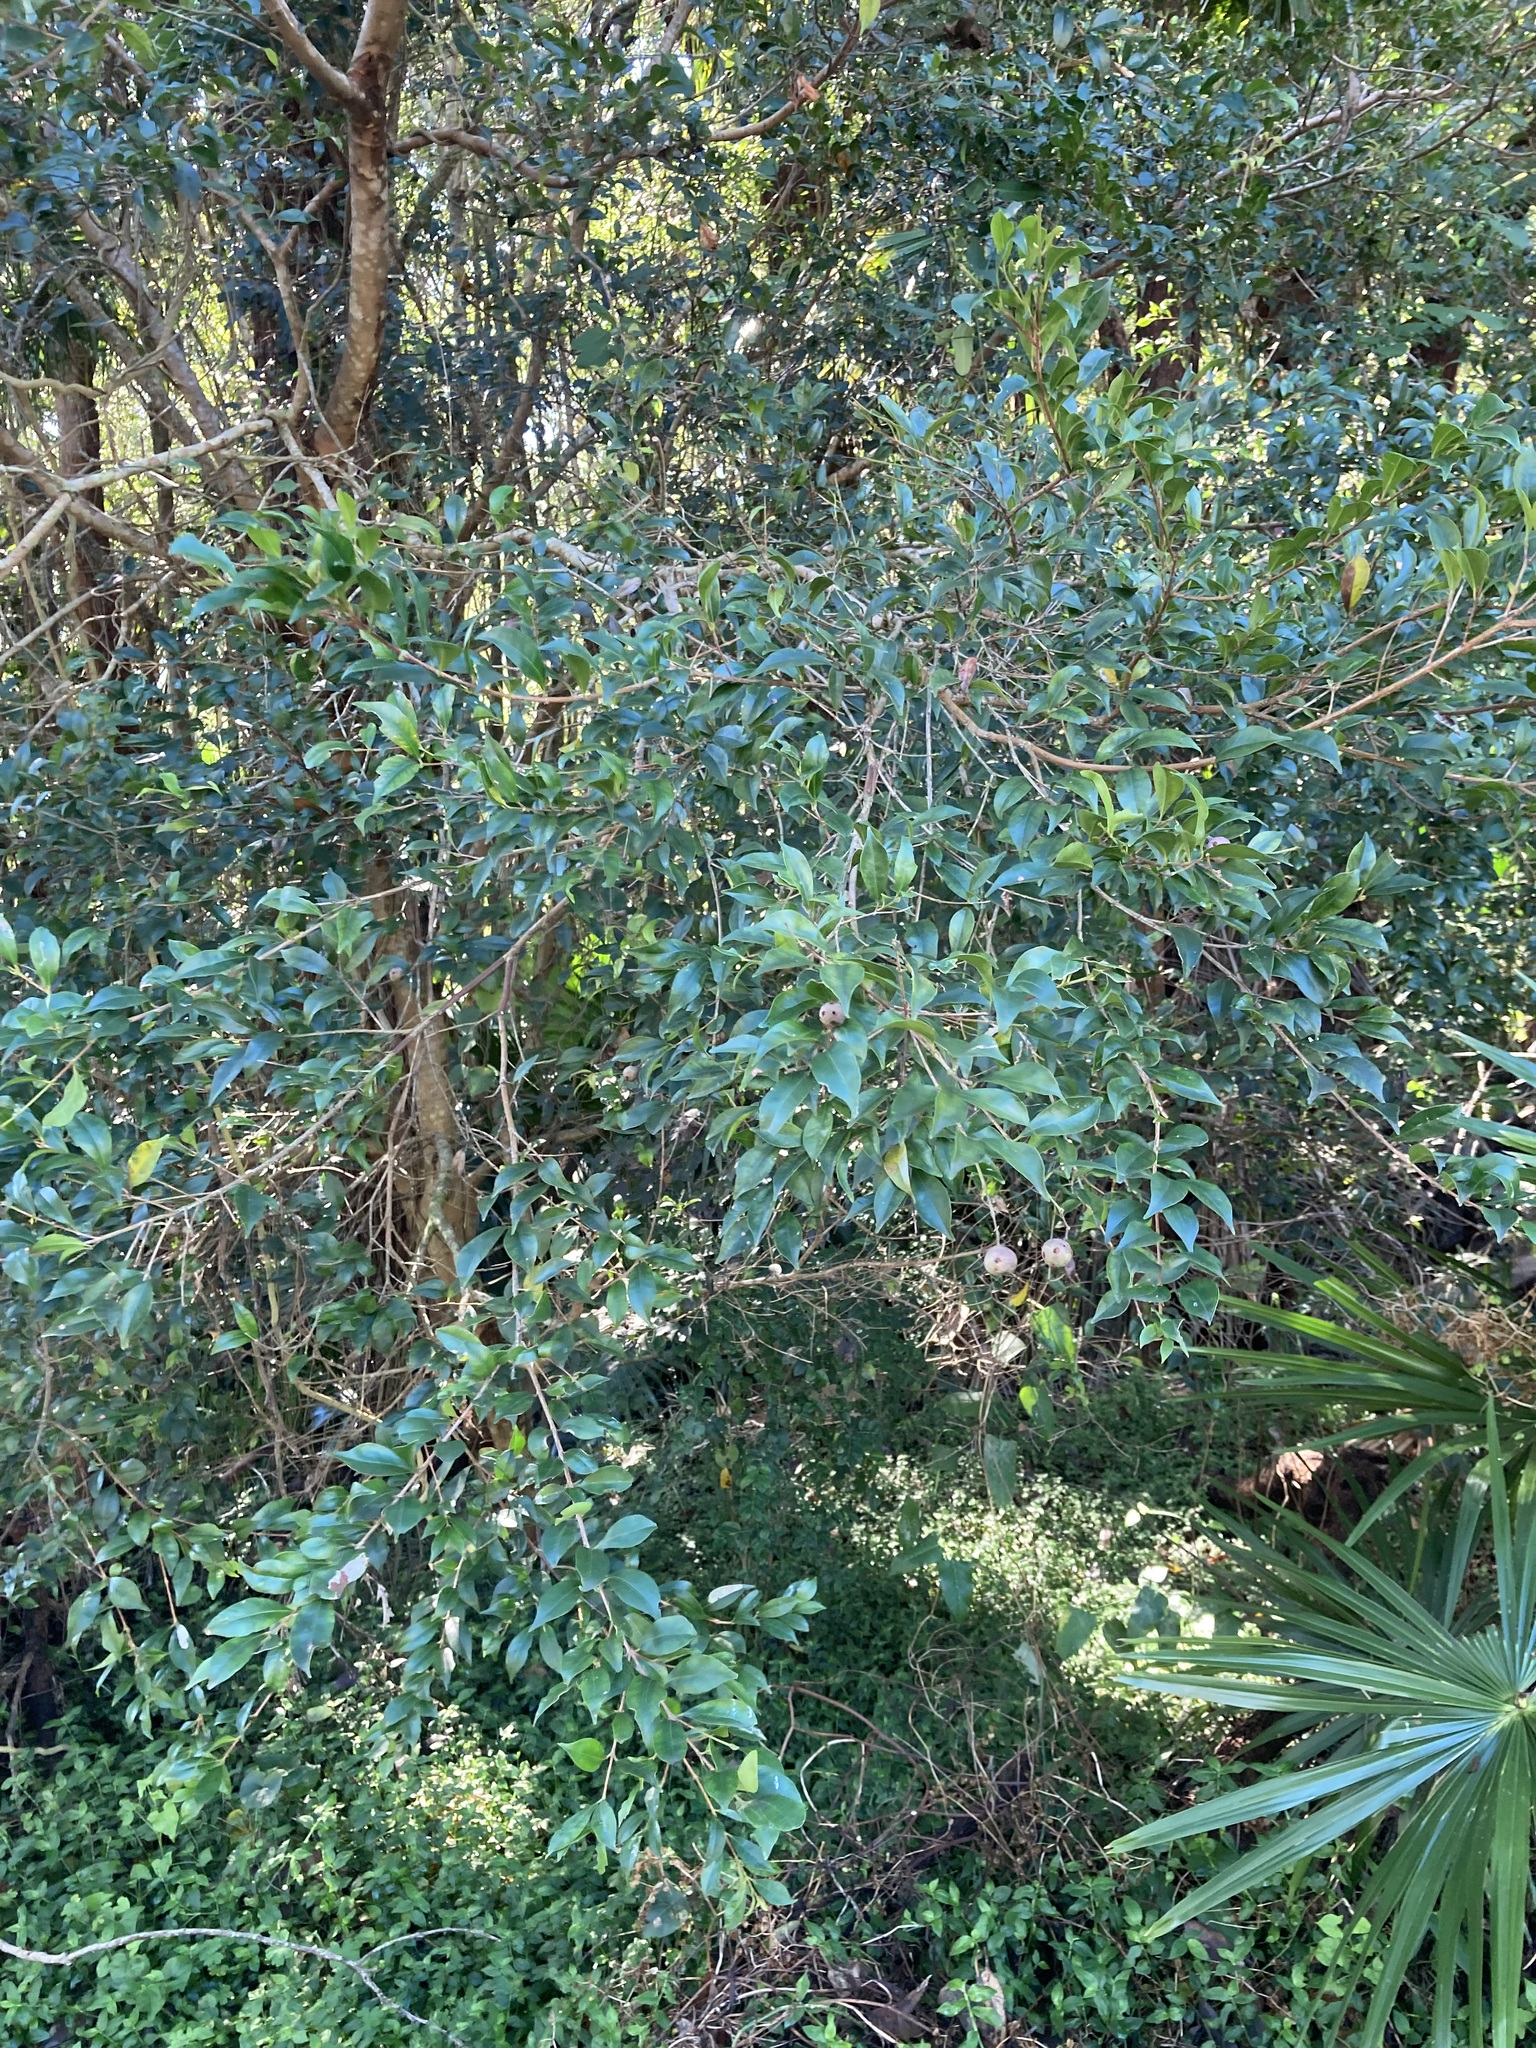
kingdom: Plantae
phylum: Tracheophyta
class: Magnoliopsida
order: Myrtales
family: Myrtaceae
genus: Syzygium
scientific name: Syzygium smithii
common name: Lilly-pilly
